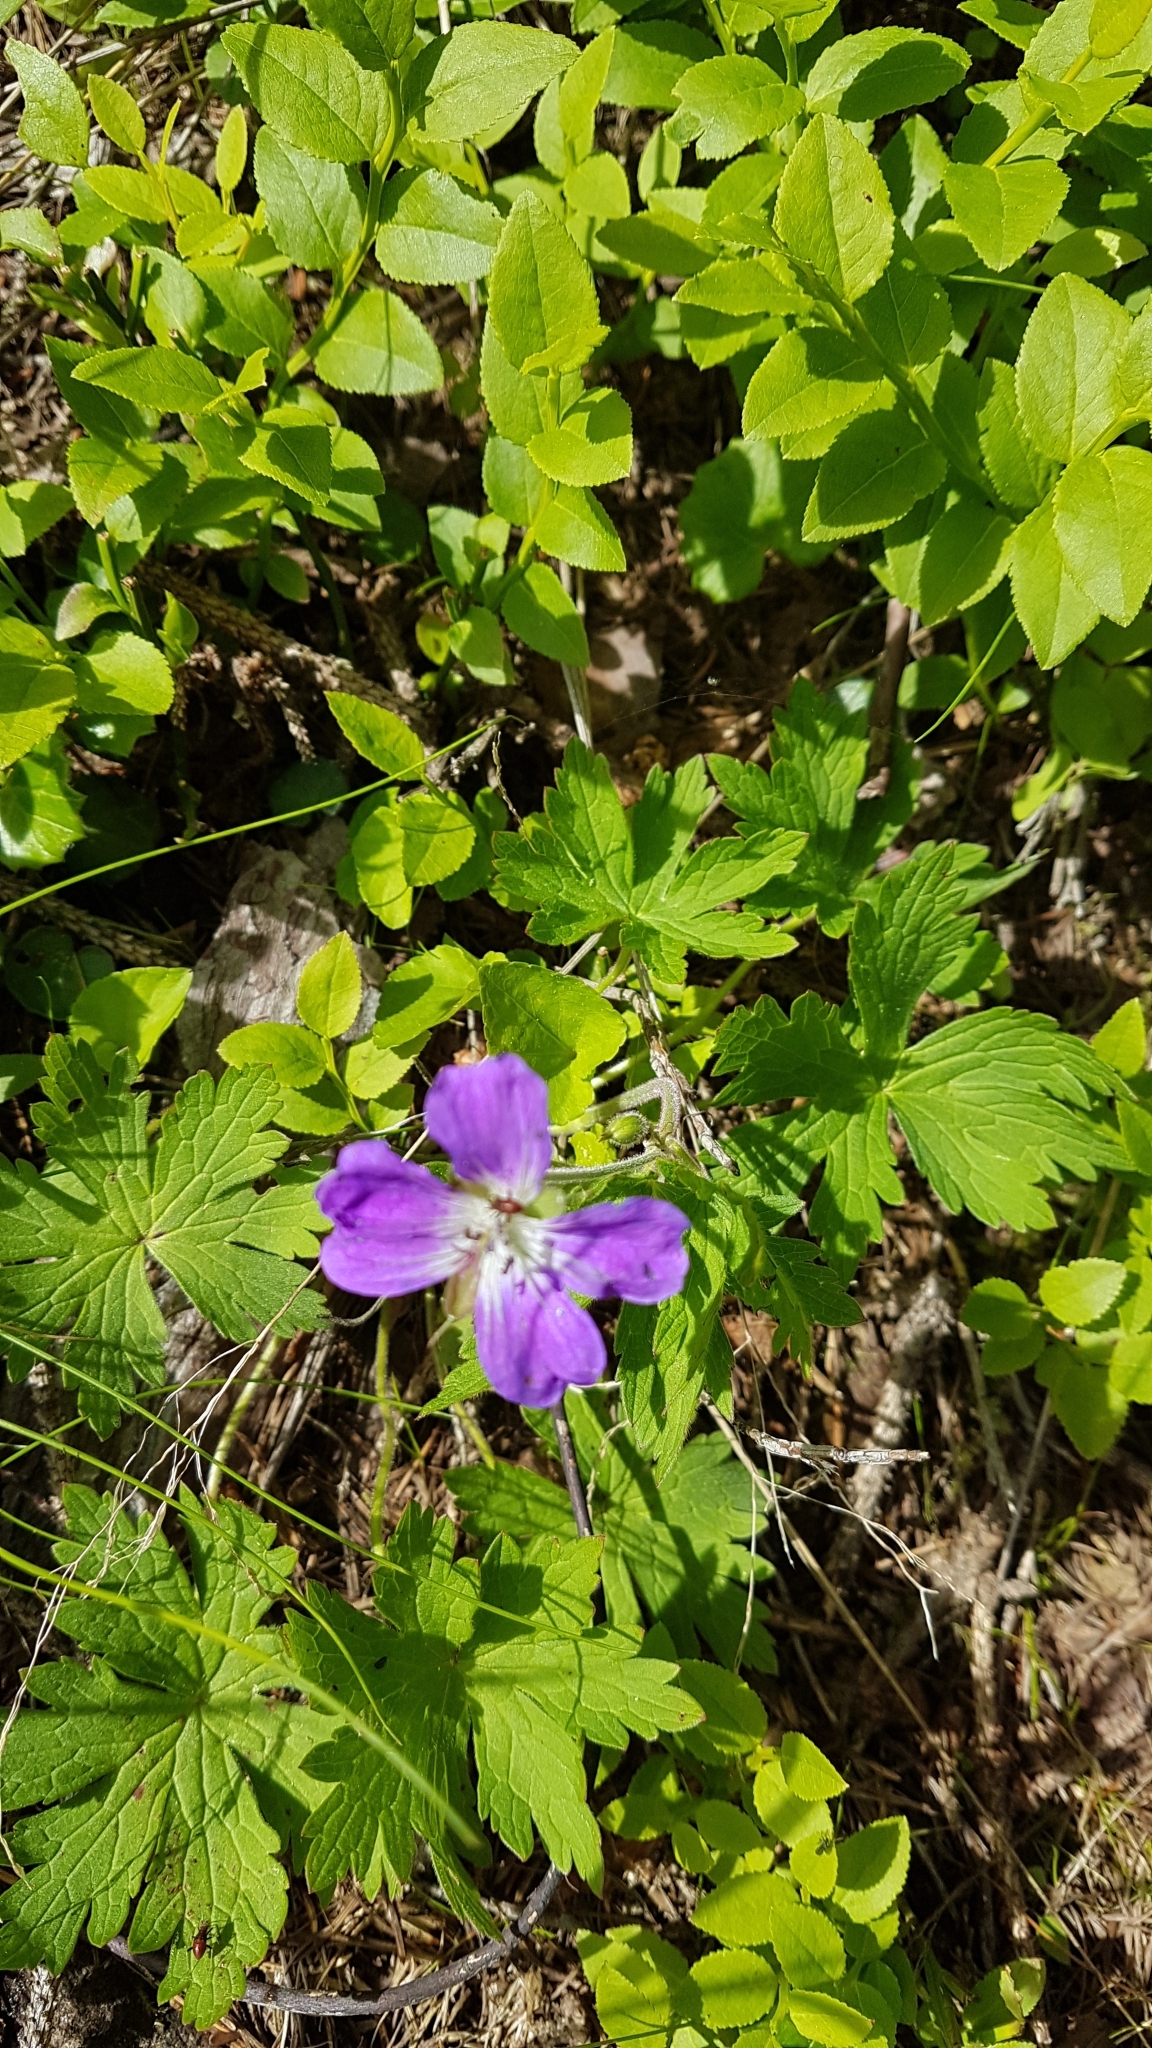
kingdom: Plantae
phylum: Tracheophyta
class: Magnoliopsida
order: Geraniales
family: Geraniaceae
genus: Geranium
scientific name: Geranium sylvaticum
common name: Wood crane's-bill
